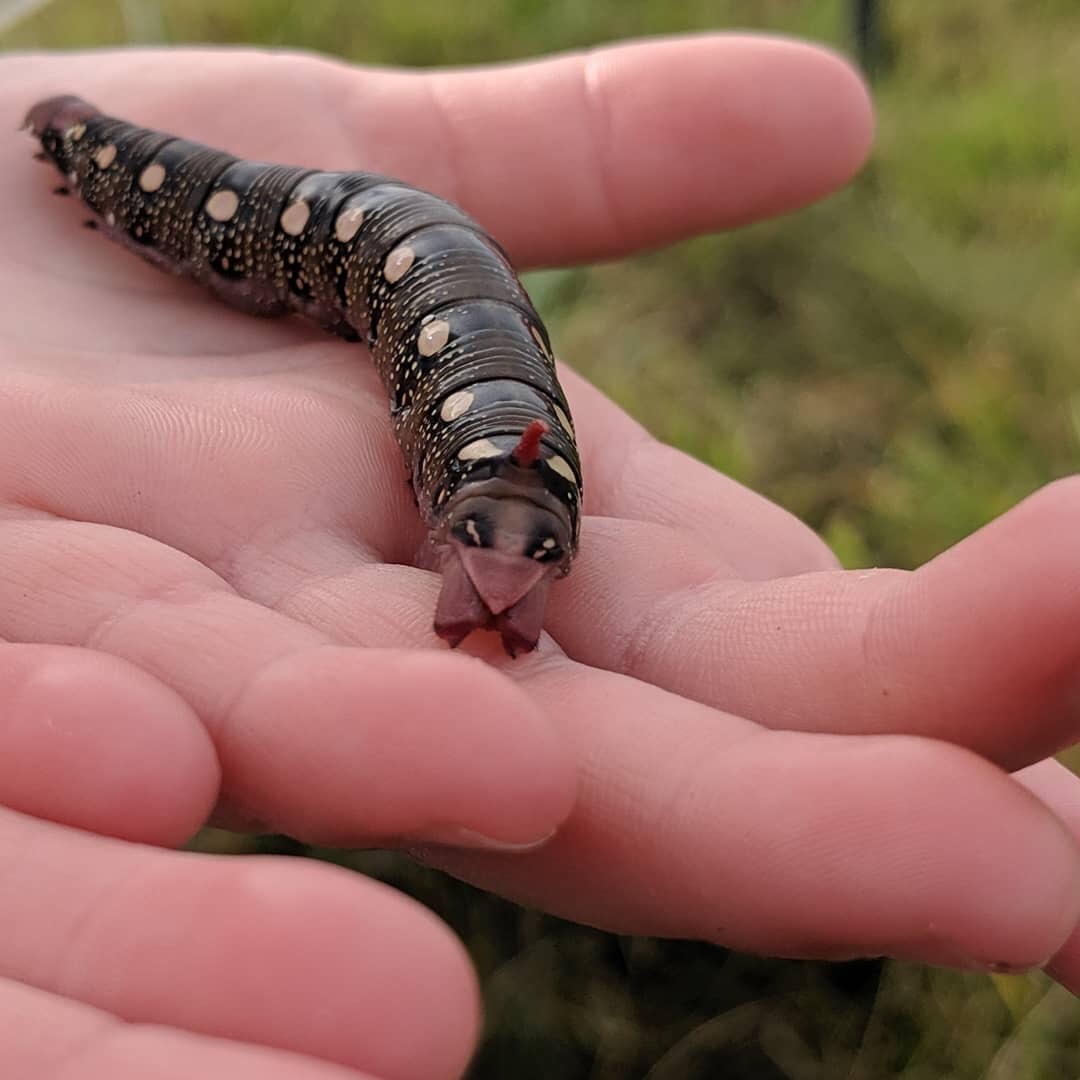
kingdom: Animalia
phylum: Arthropoda
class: Insecta
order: Lepidoptera
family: Sphingidae
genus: Hyles
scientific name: Hyles gallii
